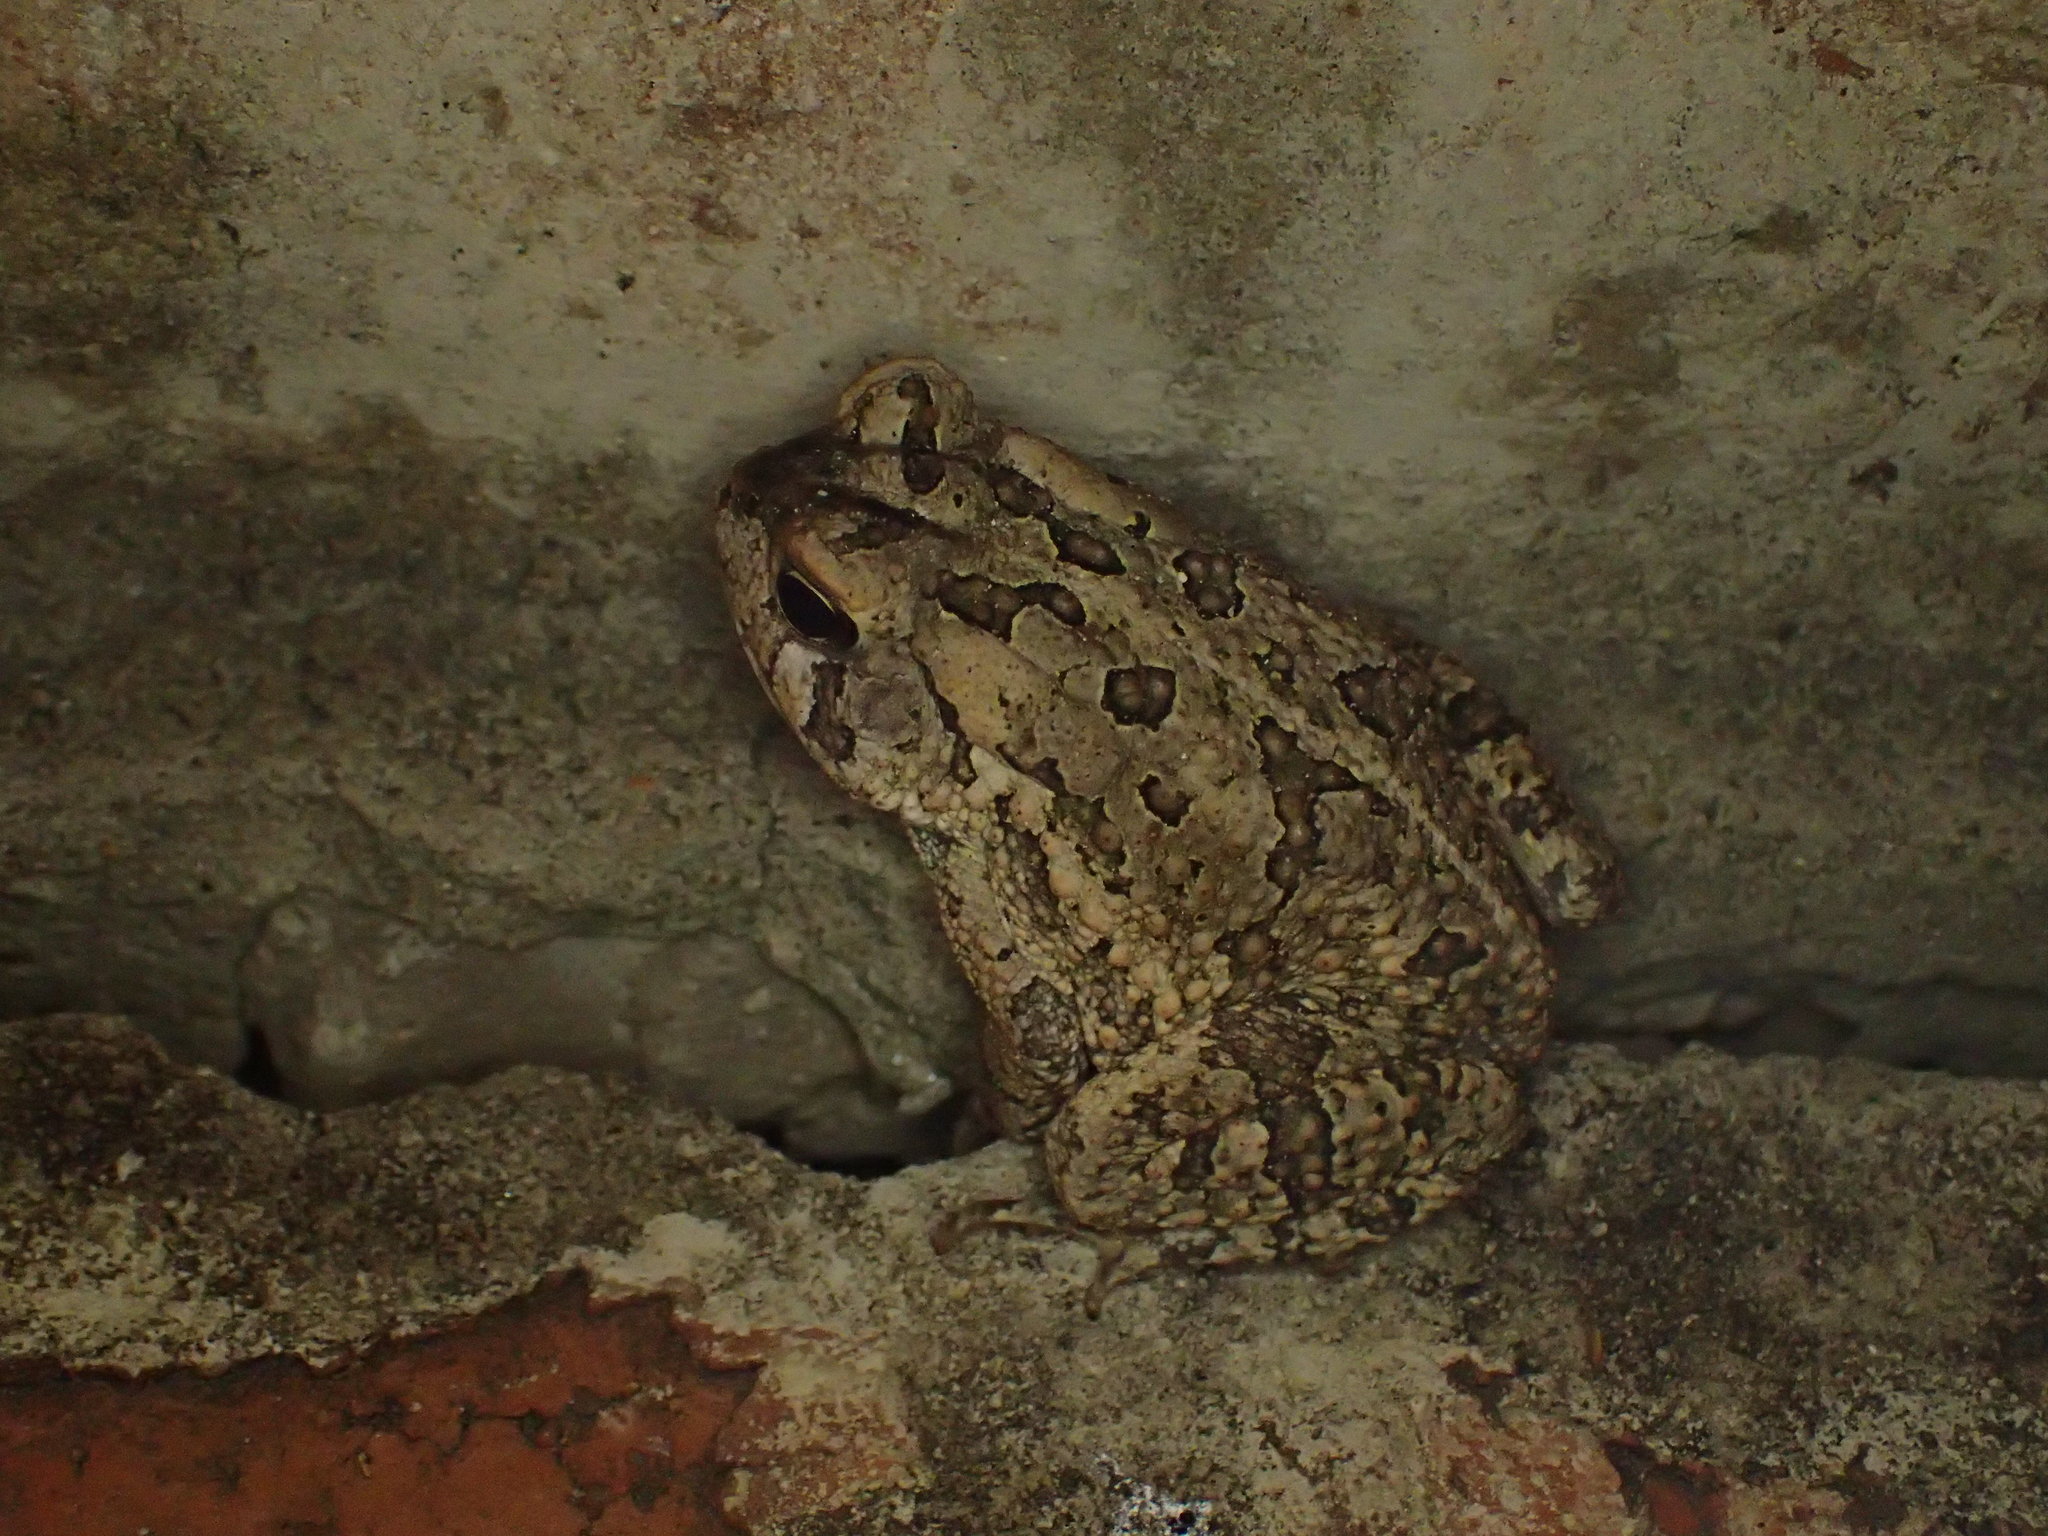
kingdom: Animalia
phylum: Chordata
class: Amphibia
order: Anura
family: Bufonidae
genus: Anaxyrus
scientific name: Anaxyrus fowleri
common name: Fowler's toad
